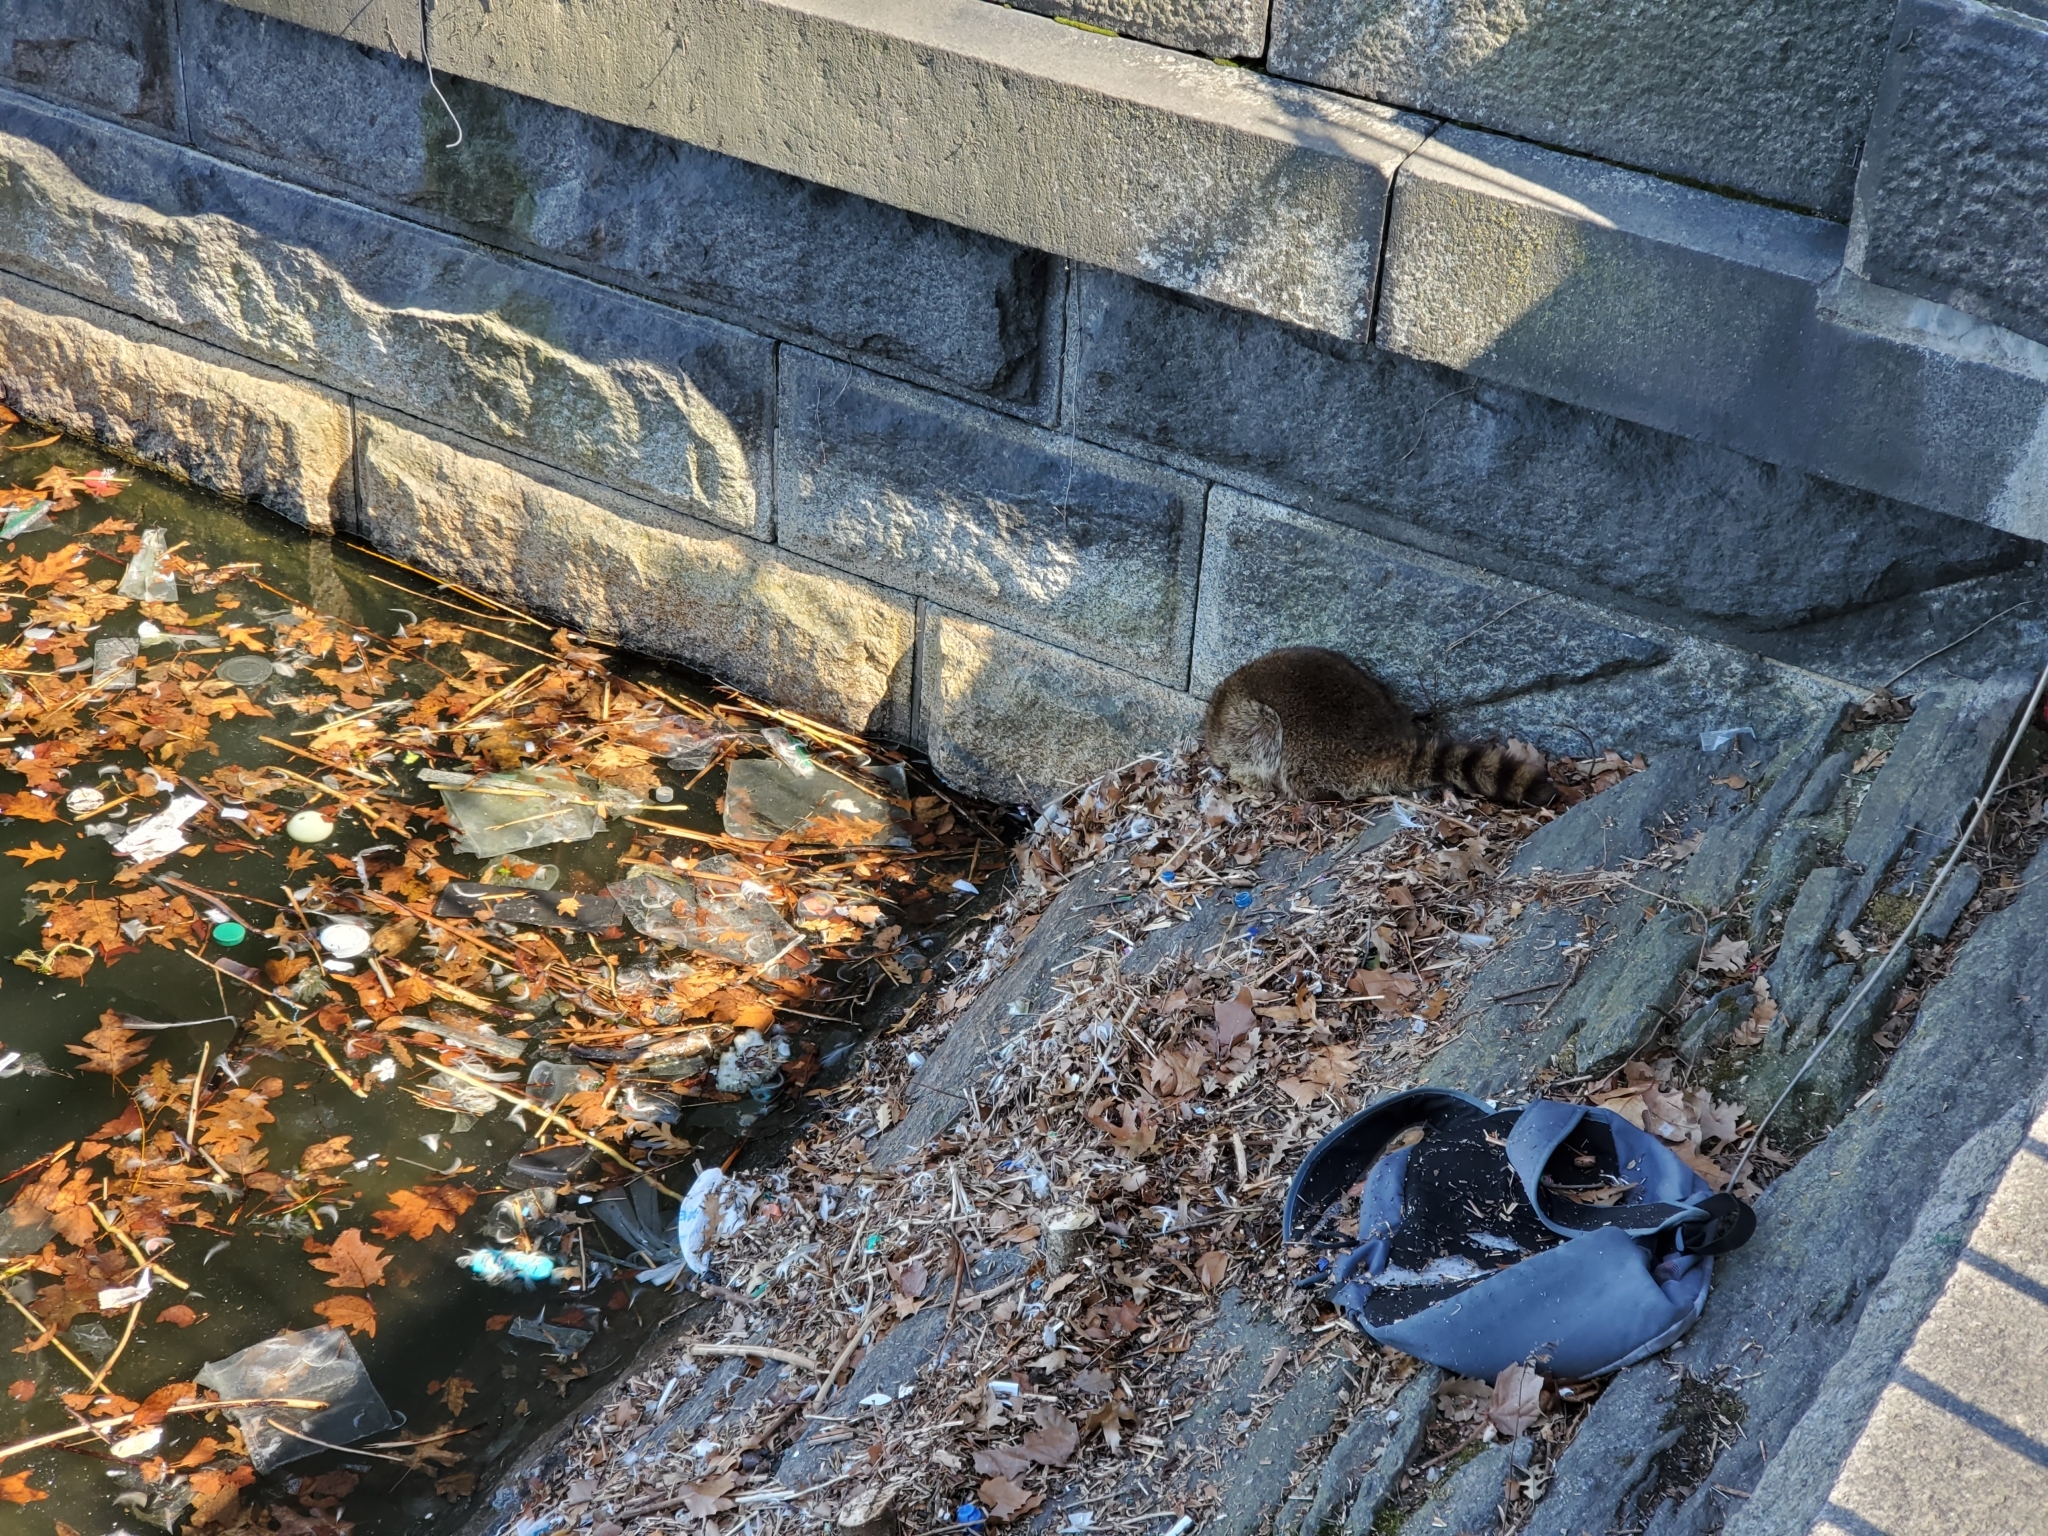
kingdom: Animalia
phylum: Chordata
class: Mammalia
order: Carnivora
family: Procyonidae
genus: Procyon
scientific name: Procyon lotor
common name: Raccoon
